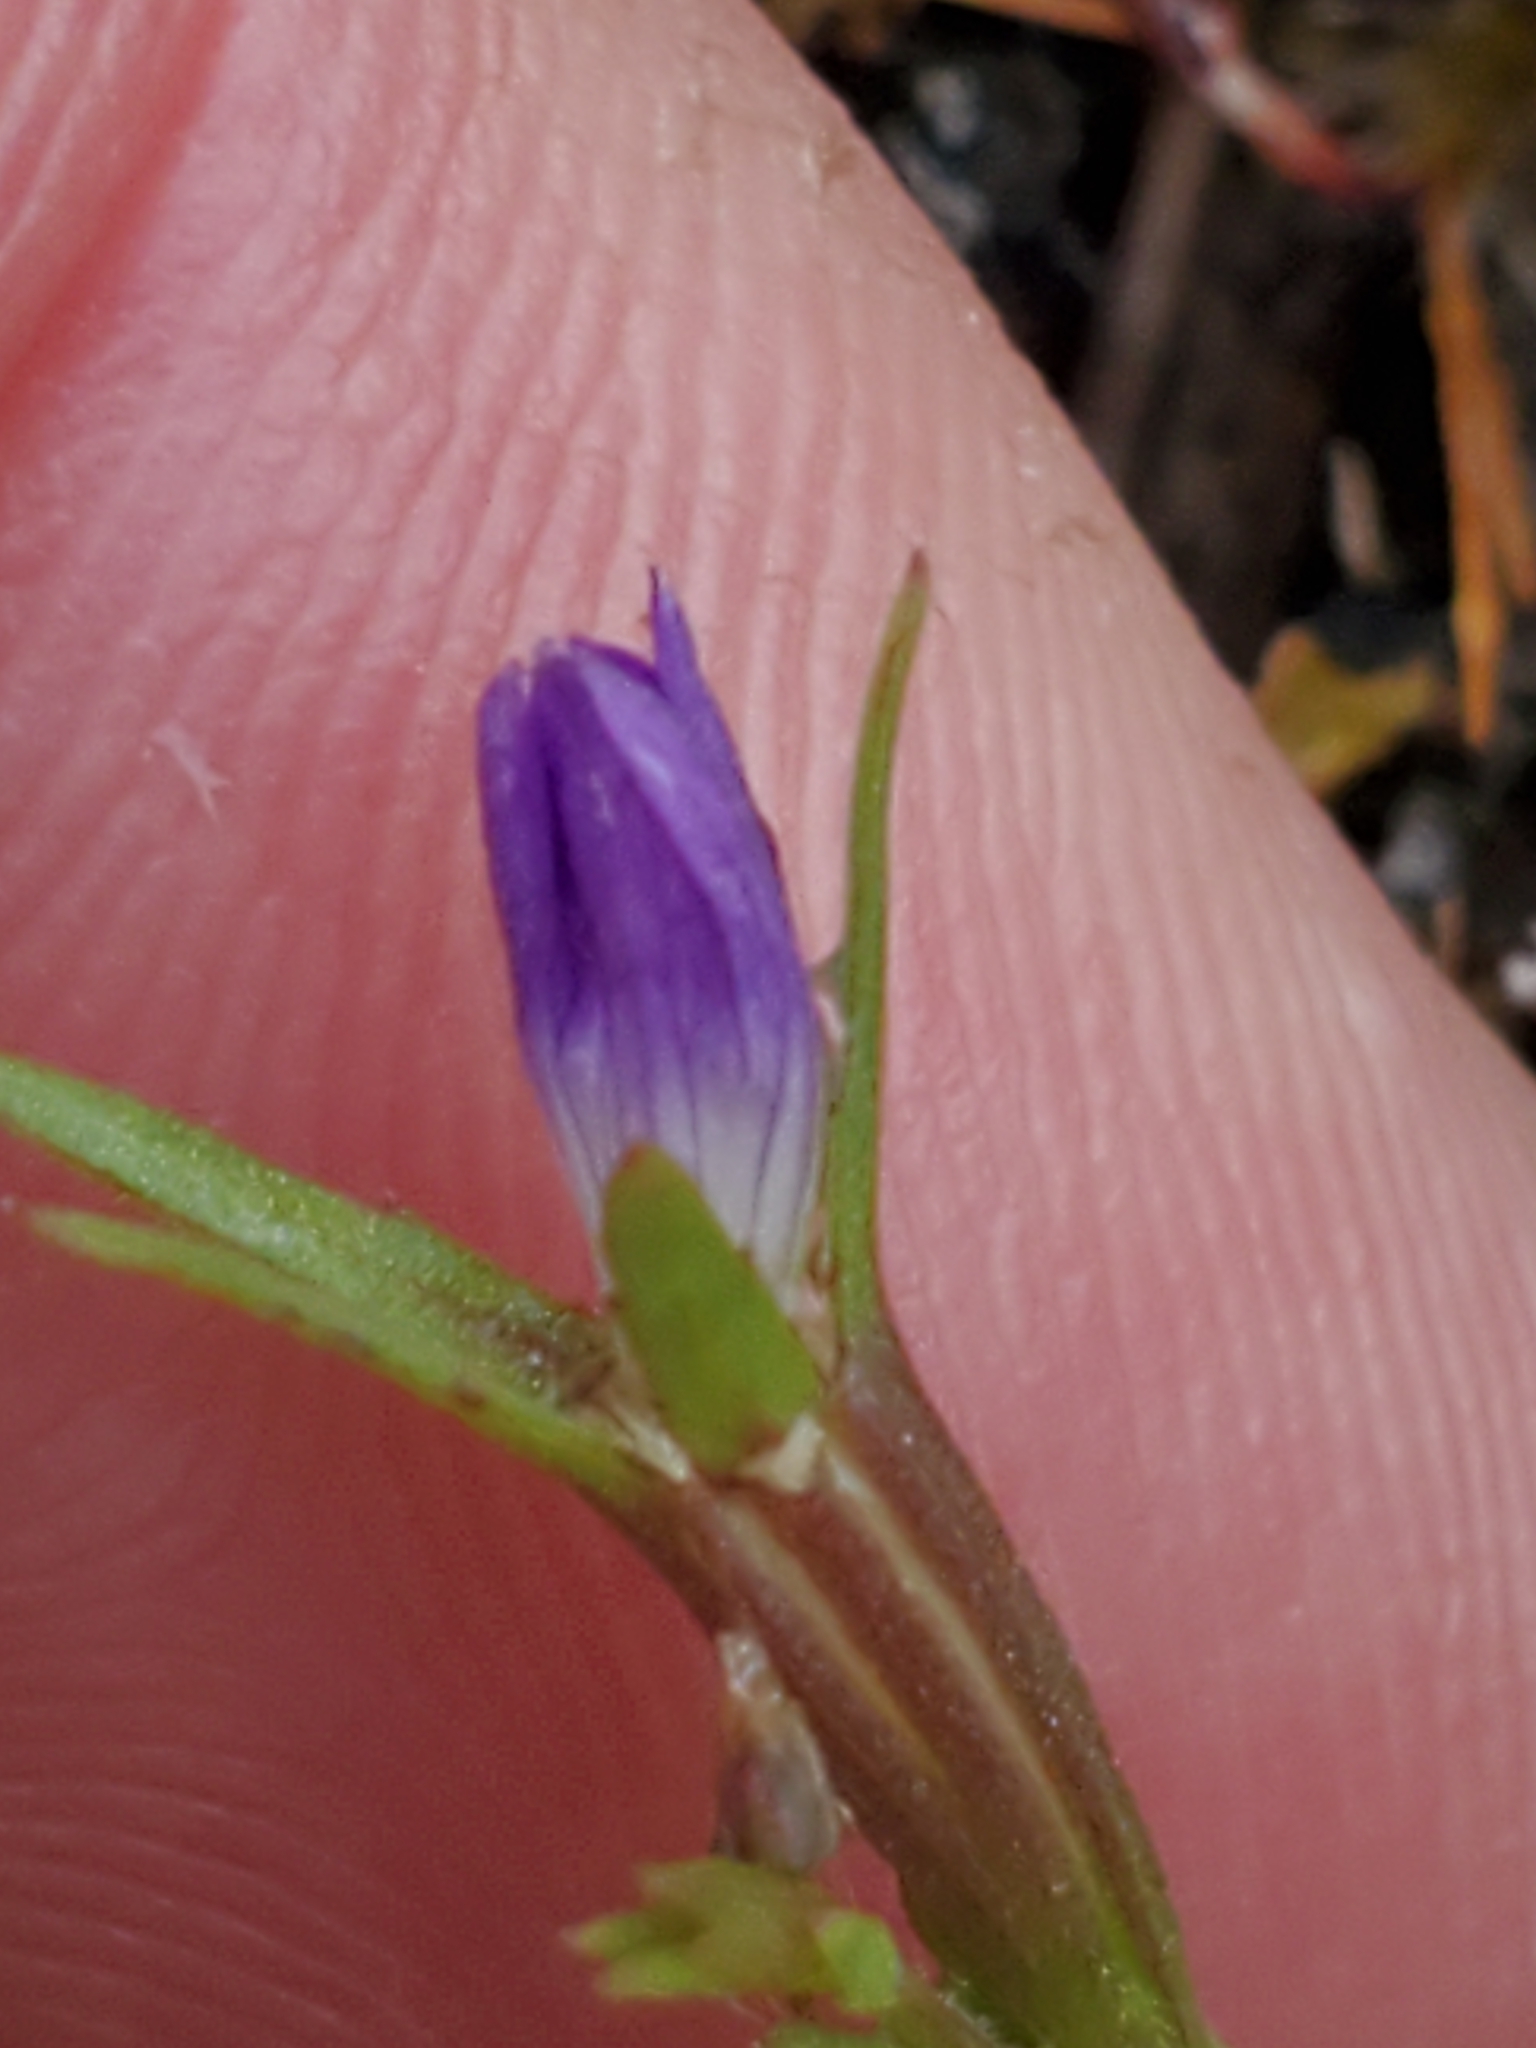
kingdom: Plantae
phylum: Tracheophyta
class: Magnoliopsida
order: Asterales
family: Campanulaceae
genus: Githopsis
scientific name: Githopsis specularioides
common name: Common bluecup
